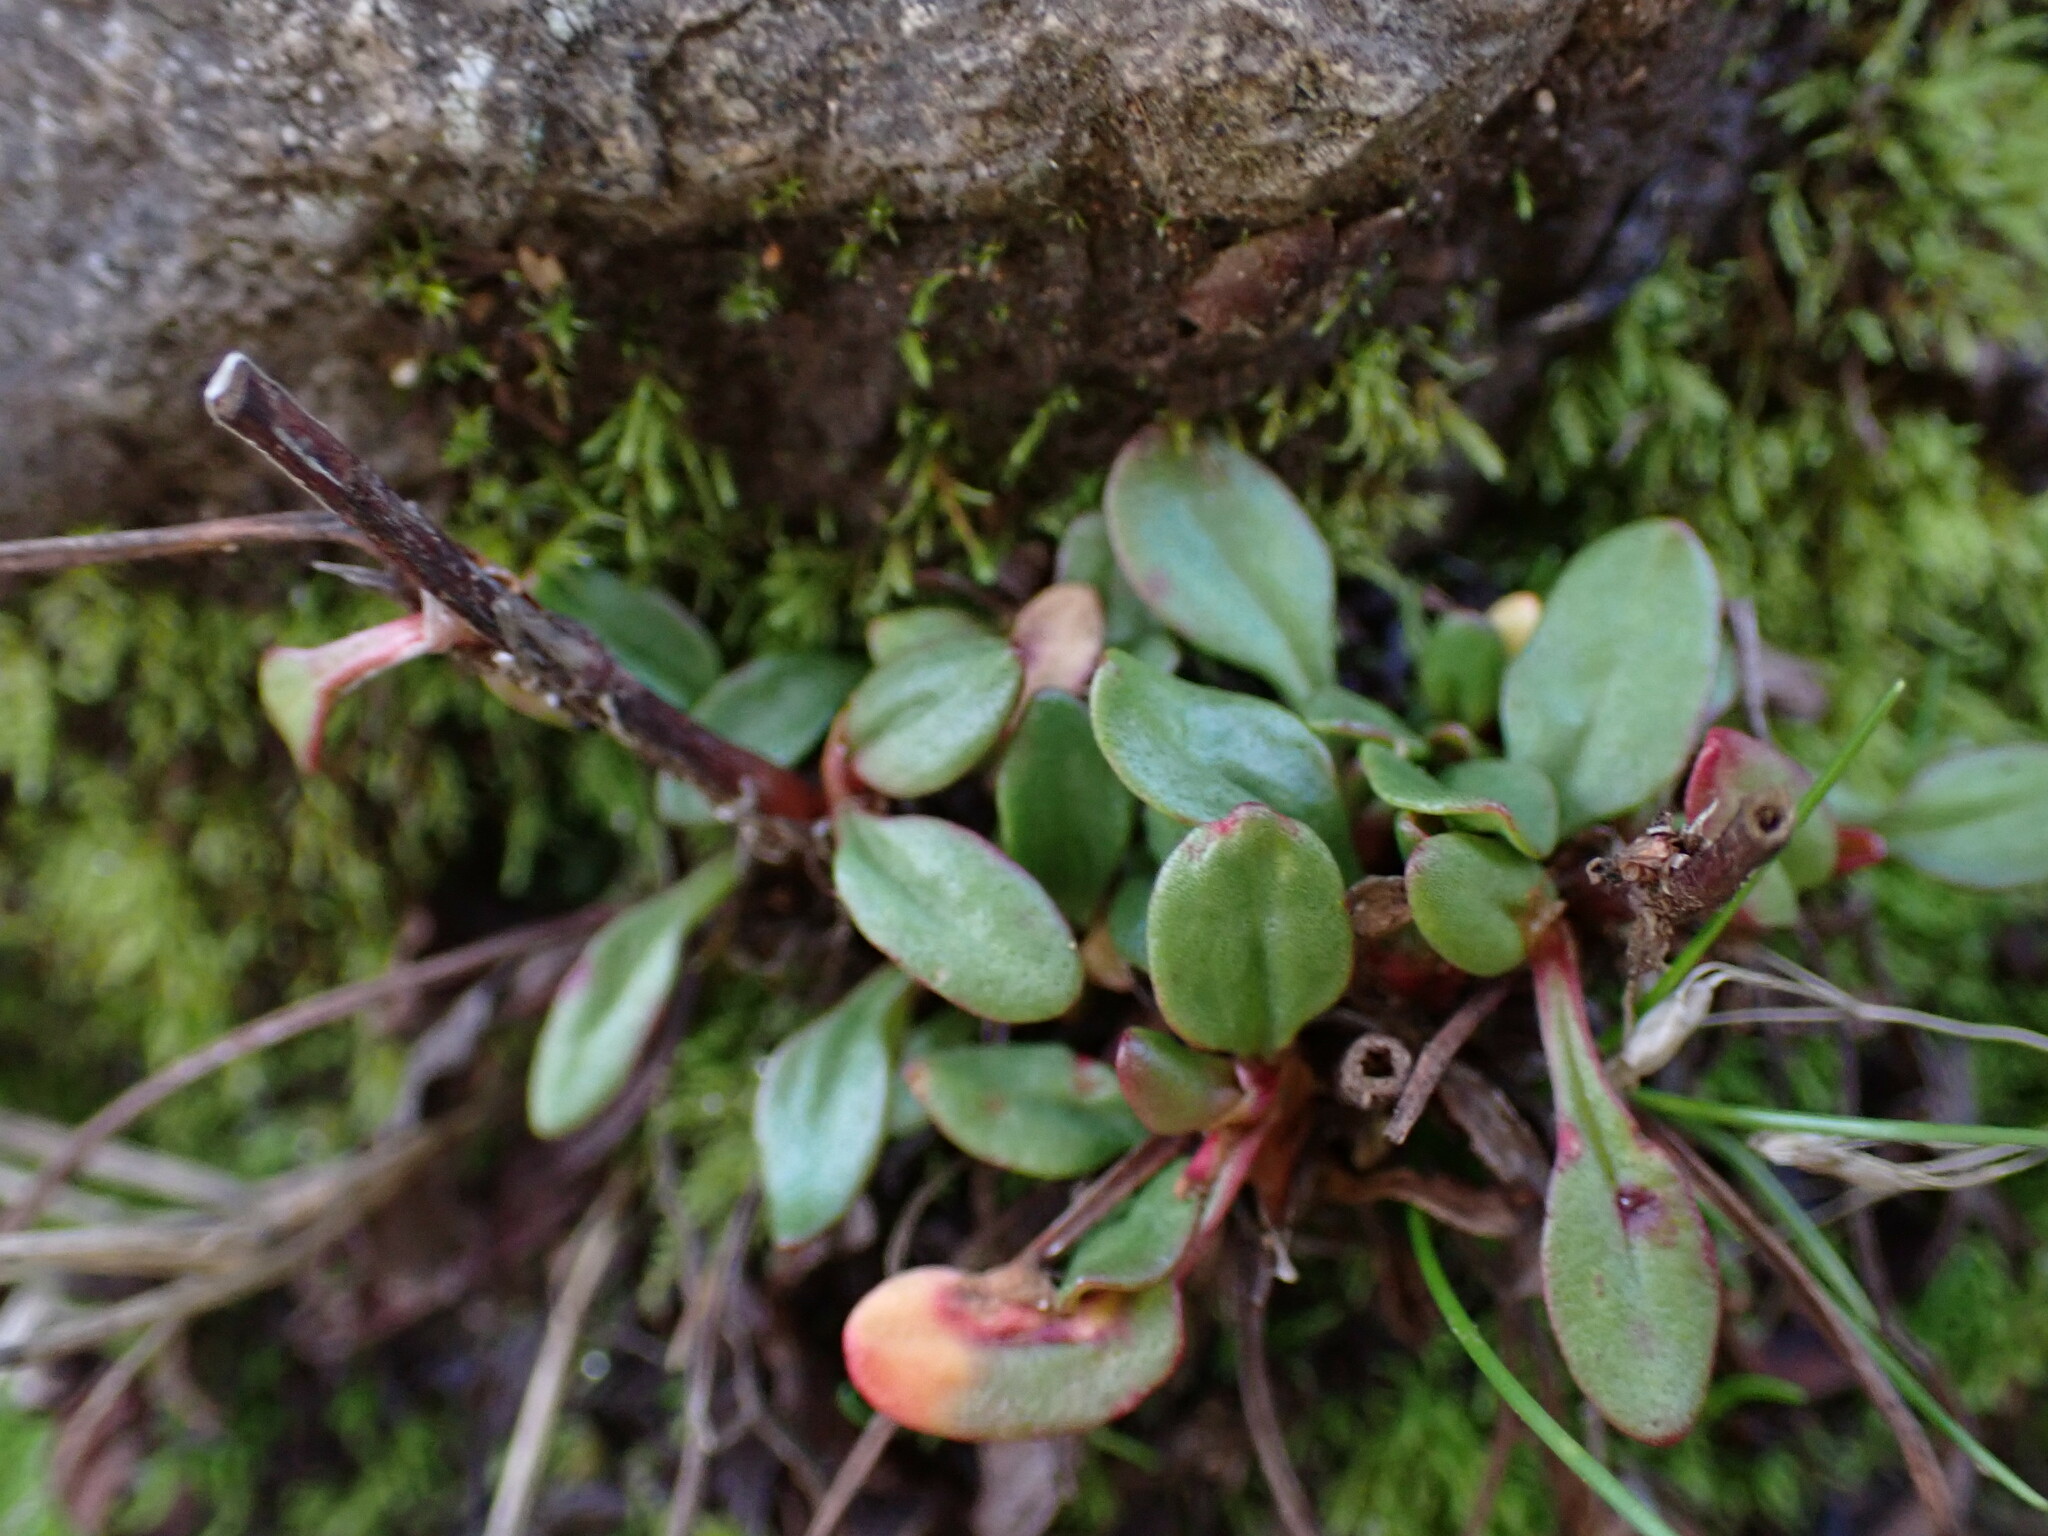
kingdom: Plantae
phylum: Tracheophyta
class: Magnoliopsida
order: Caryophyllales
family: Polygonaceae
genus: Rumex
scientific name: Rumex acetosella
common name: Common sheep sorrel
